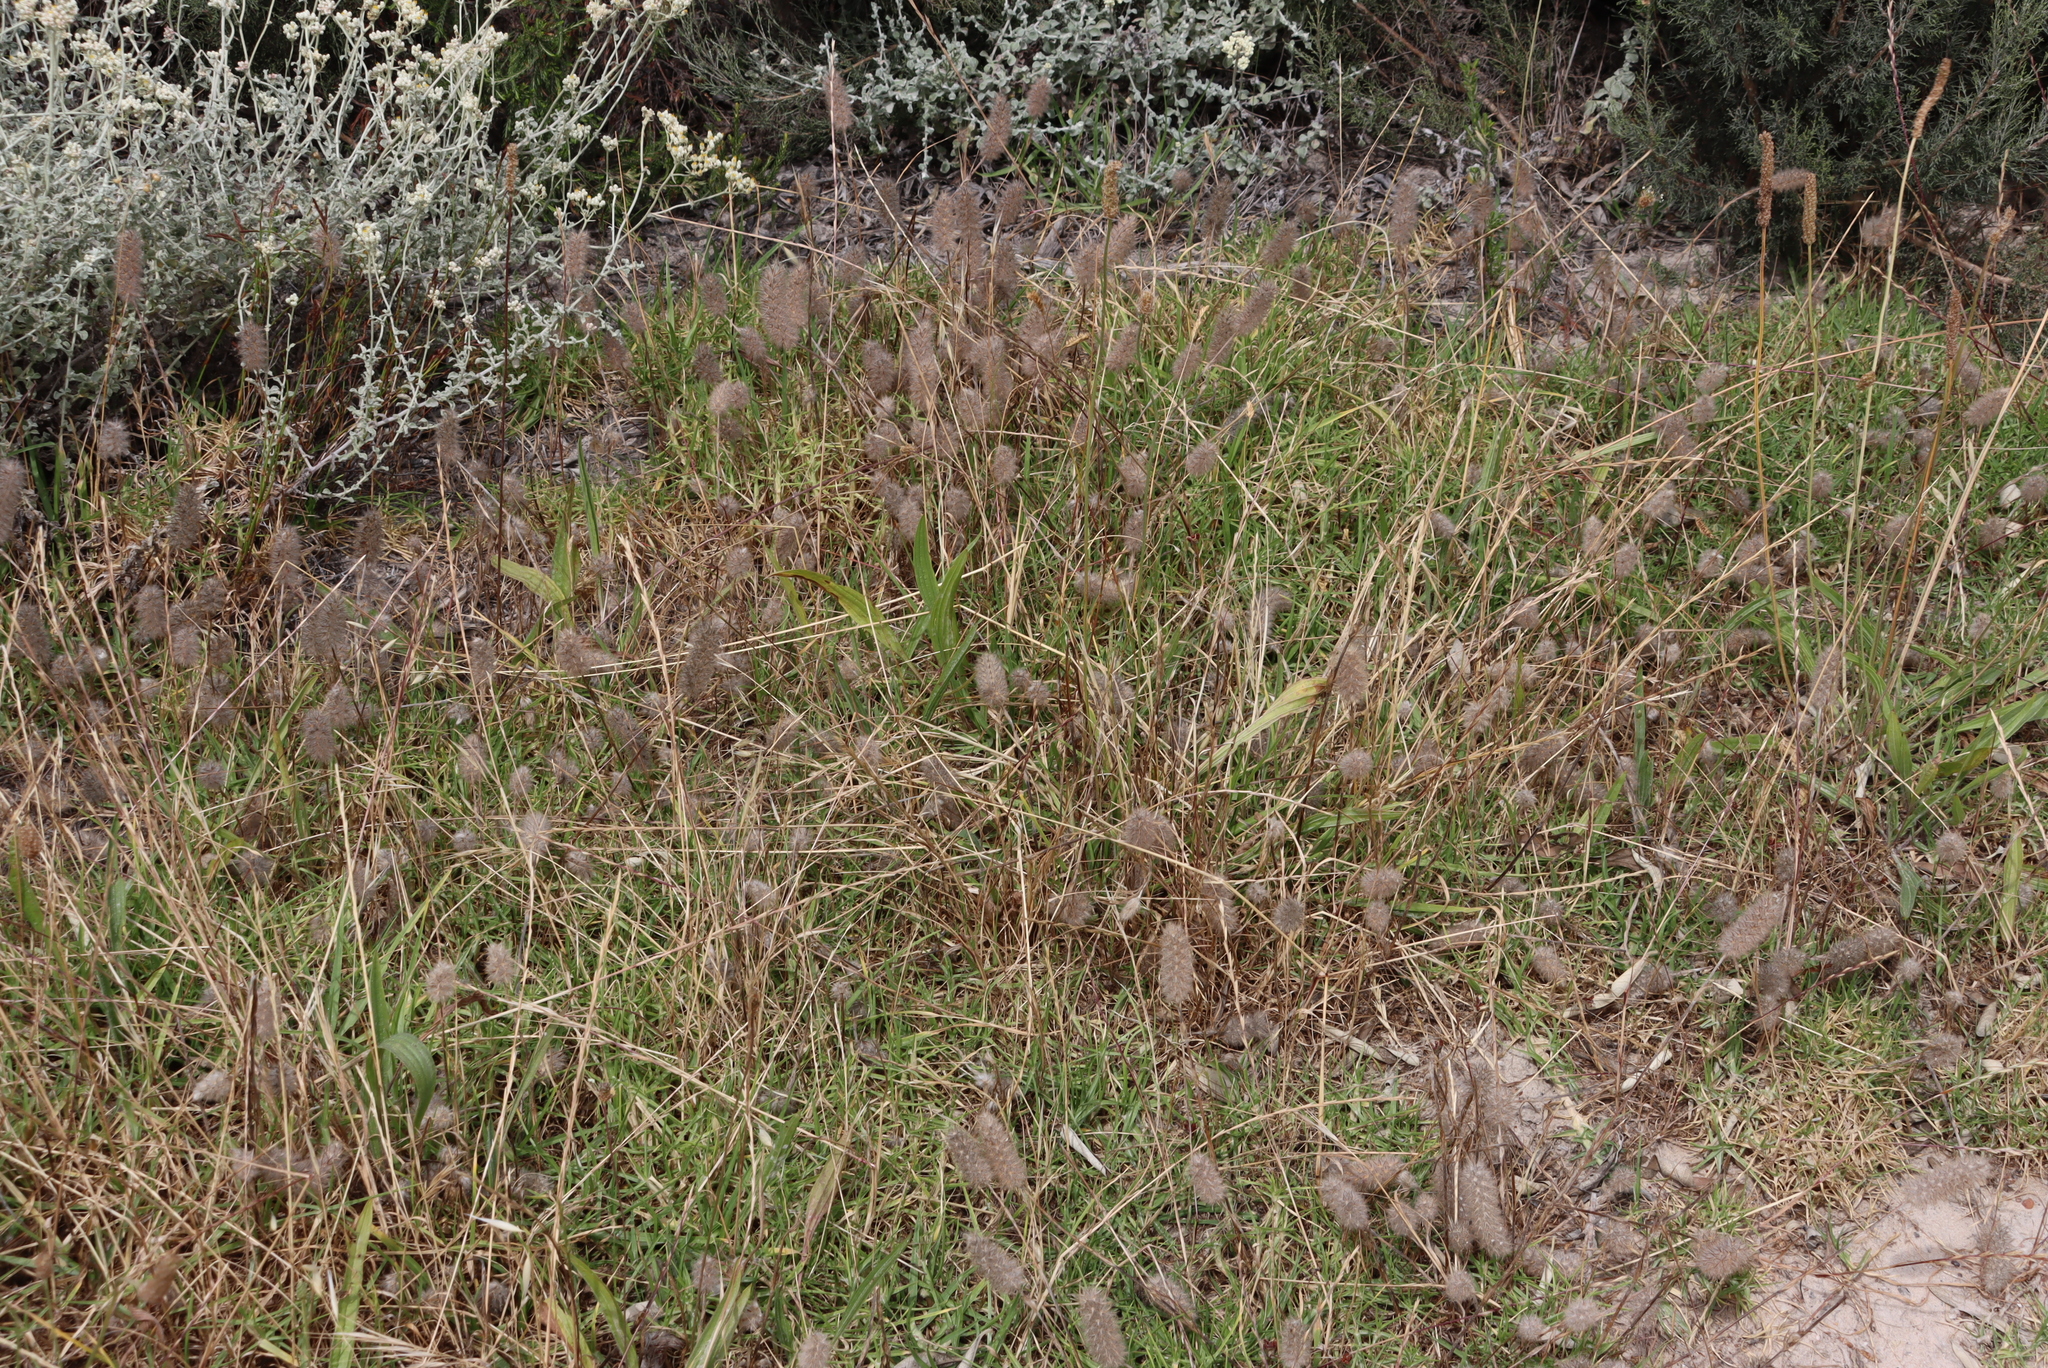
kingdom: Plantae
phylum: Tracheophyta
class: Magnoliopsida
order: Fabales
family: Fabaceae
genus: Trifolium
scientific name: Trifolium angustifolium
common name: Narrow clover
